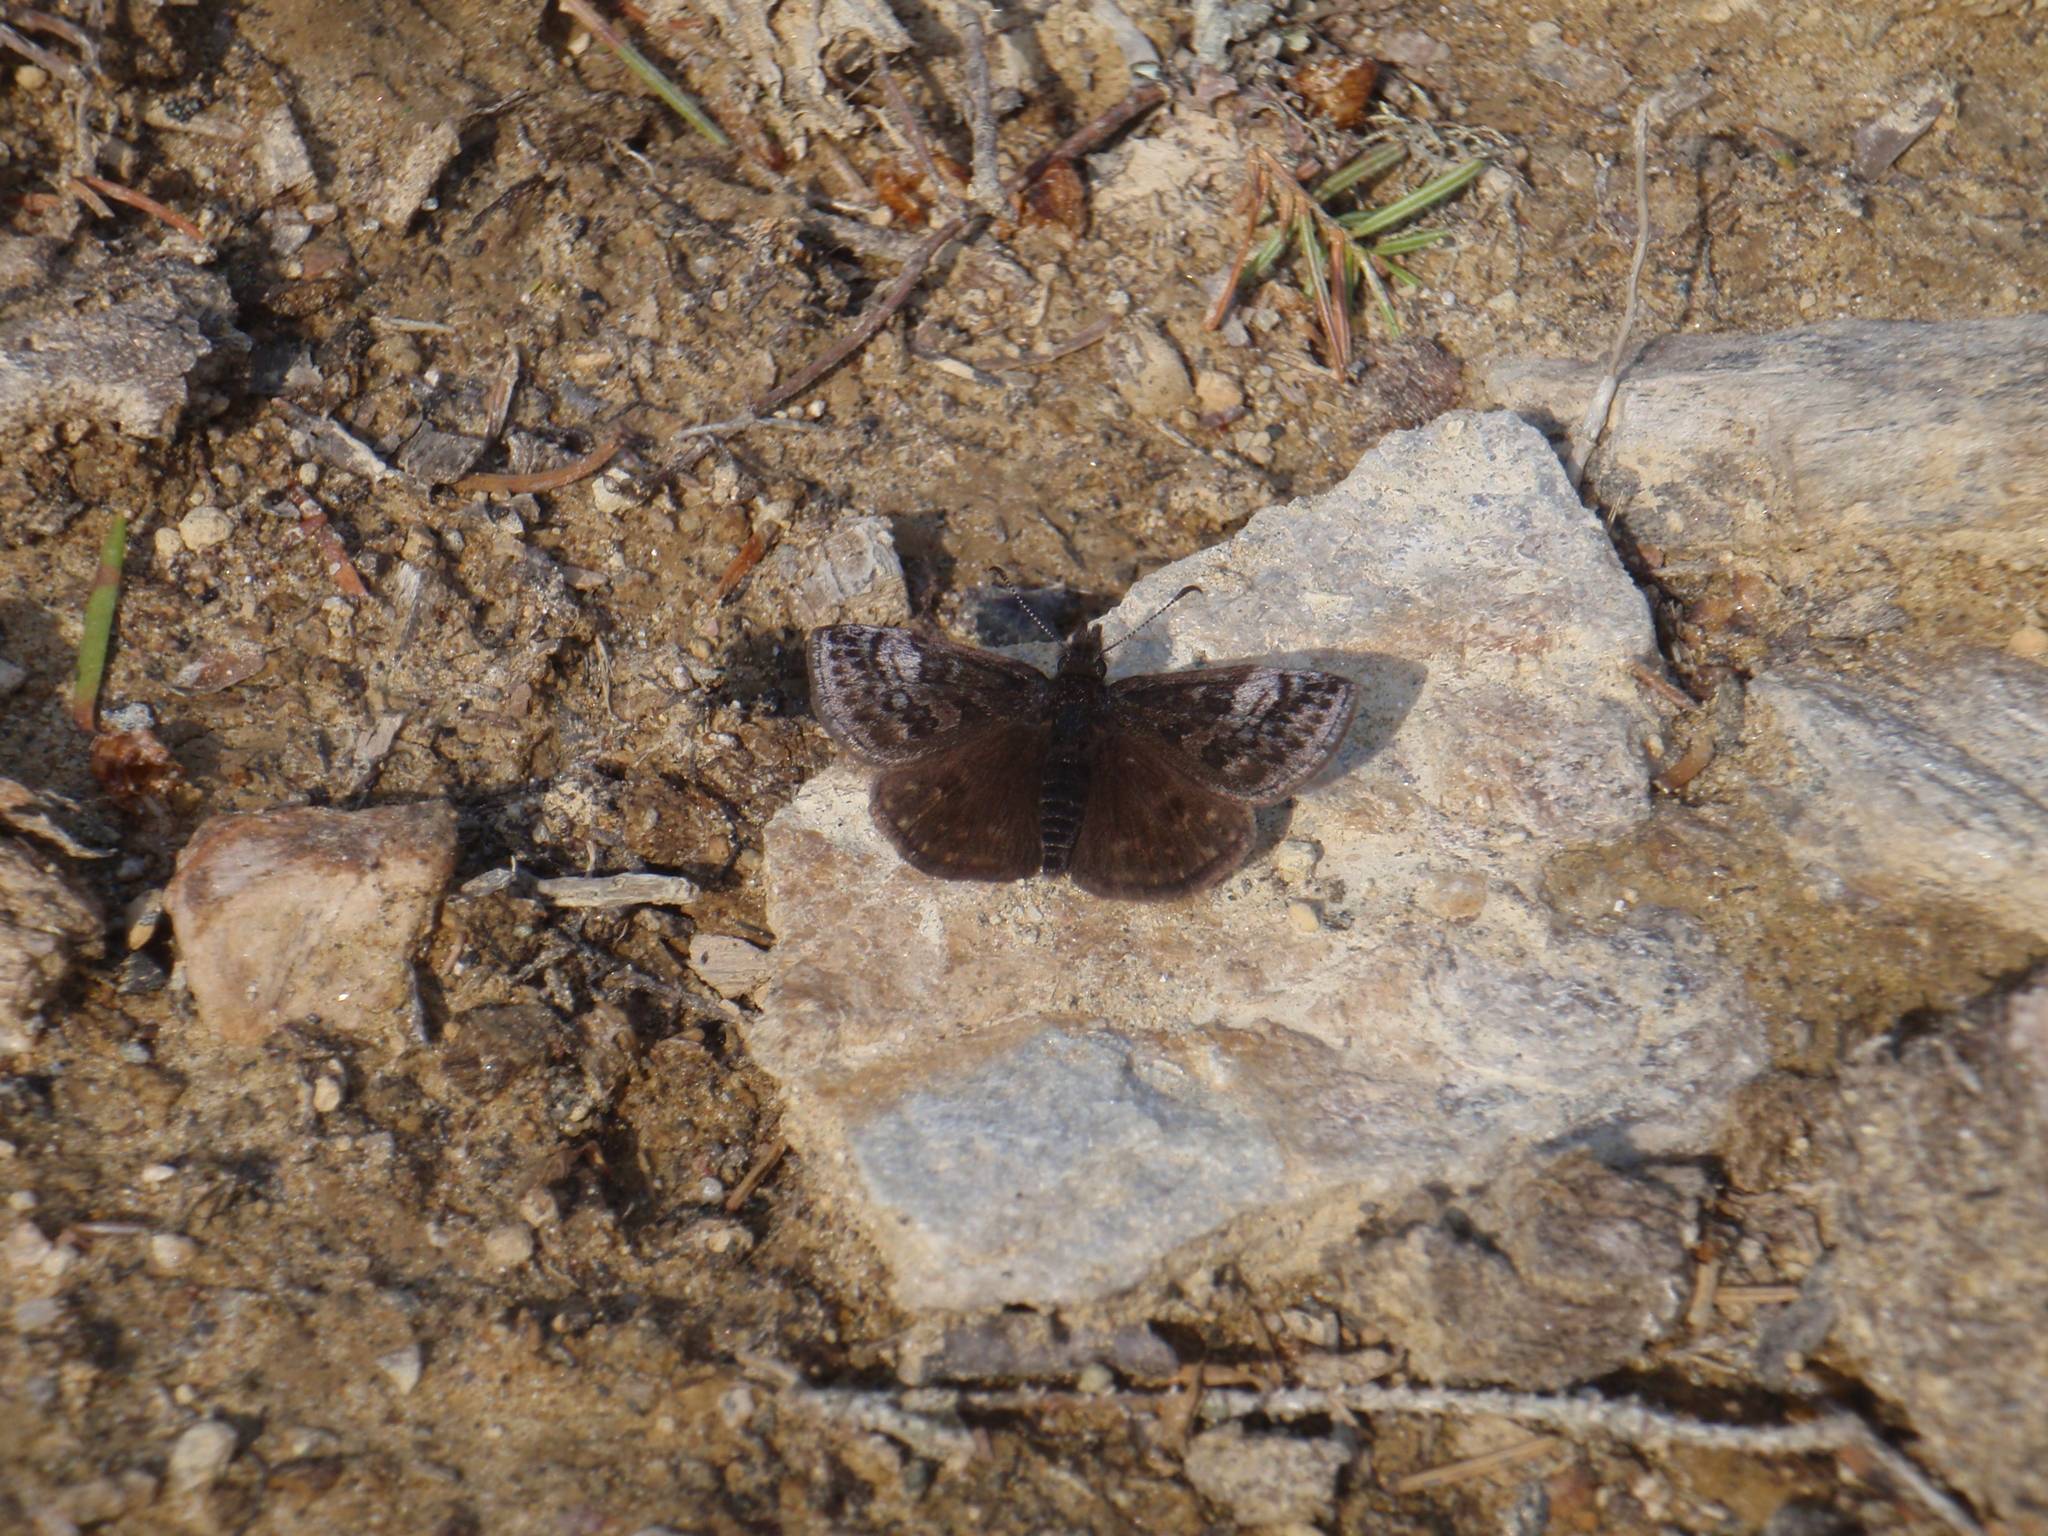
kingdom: Animalia
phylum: Arthropoda
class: Insecta
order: Lepidoptera
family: Hesperiidae
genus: Erynnis
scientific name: Erynnis icelus
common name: Dreamy duskywing
